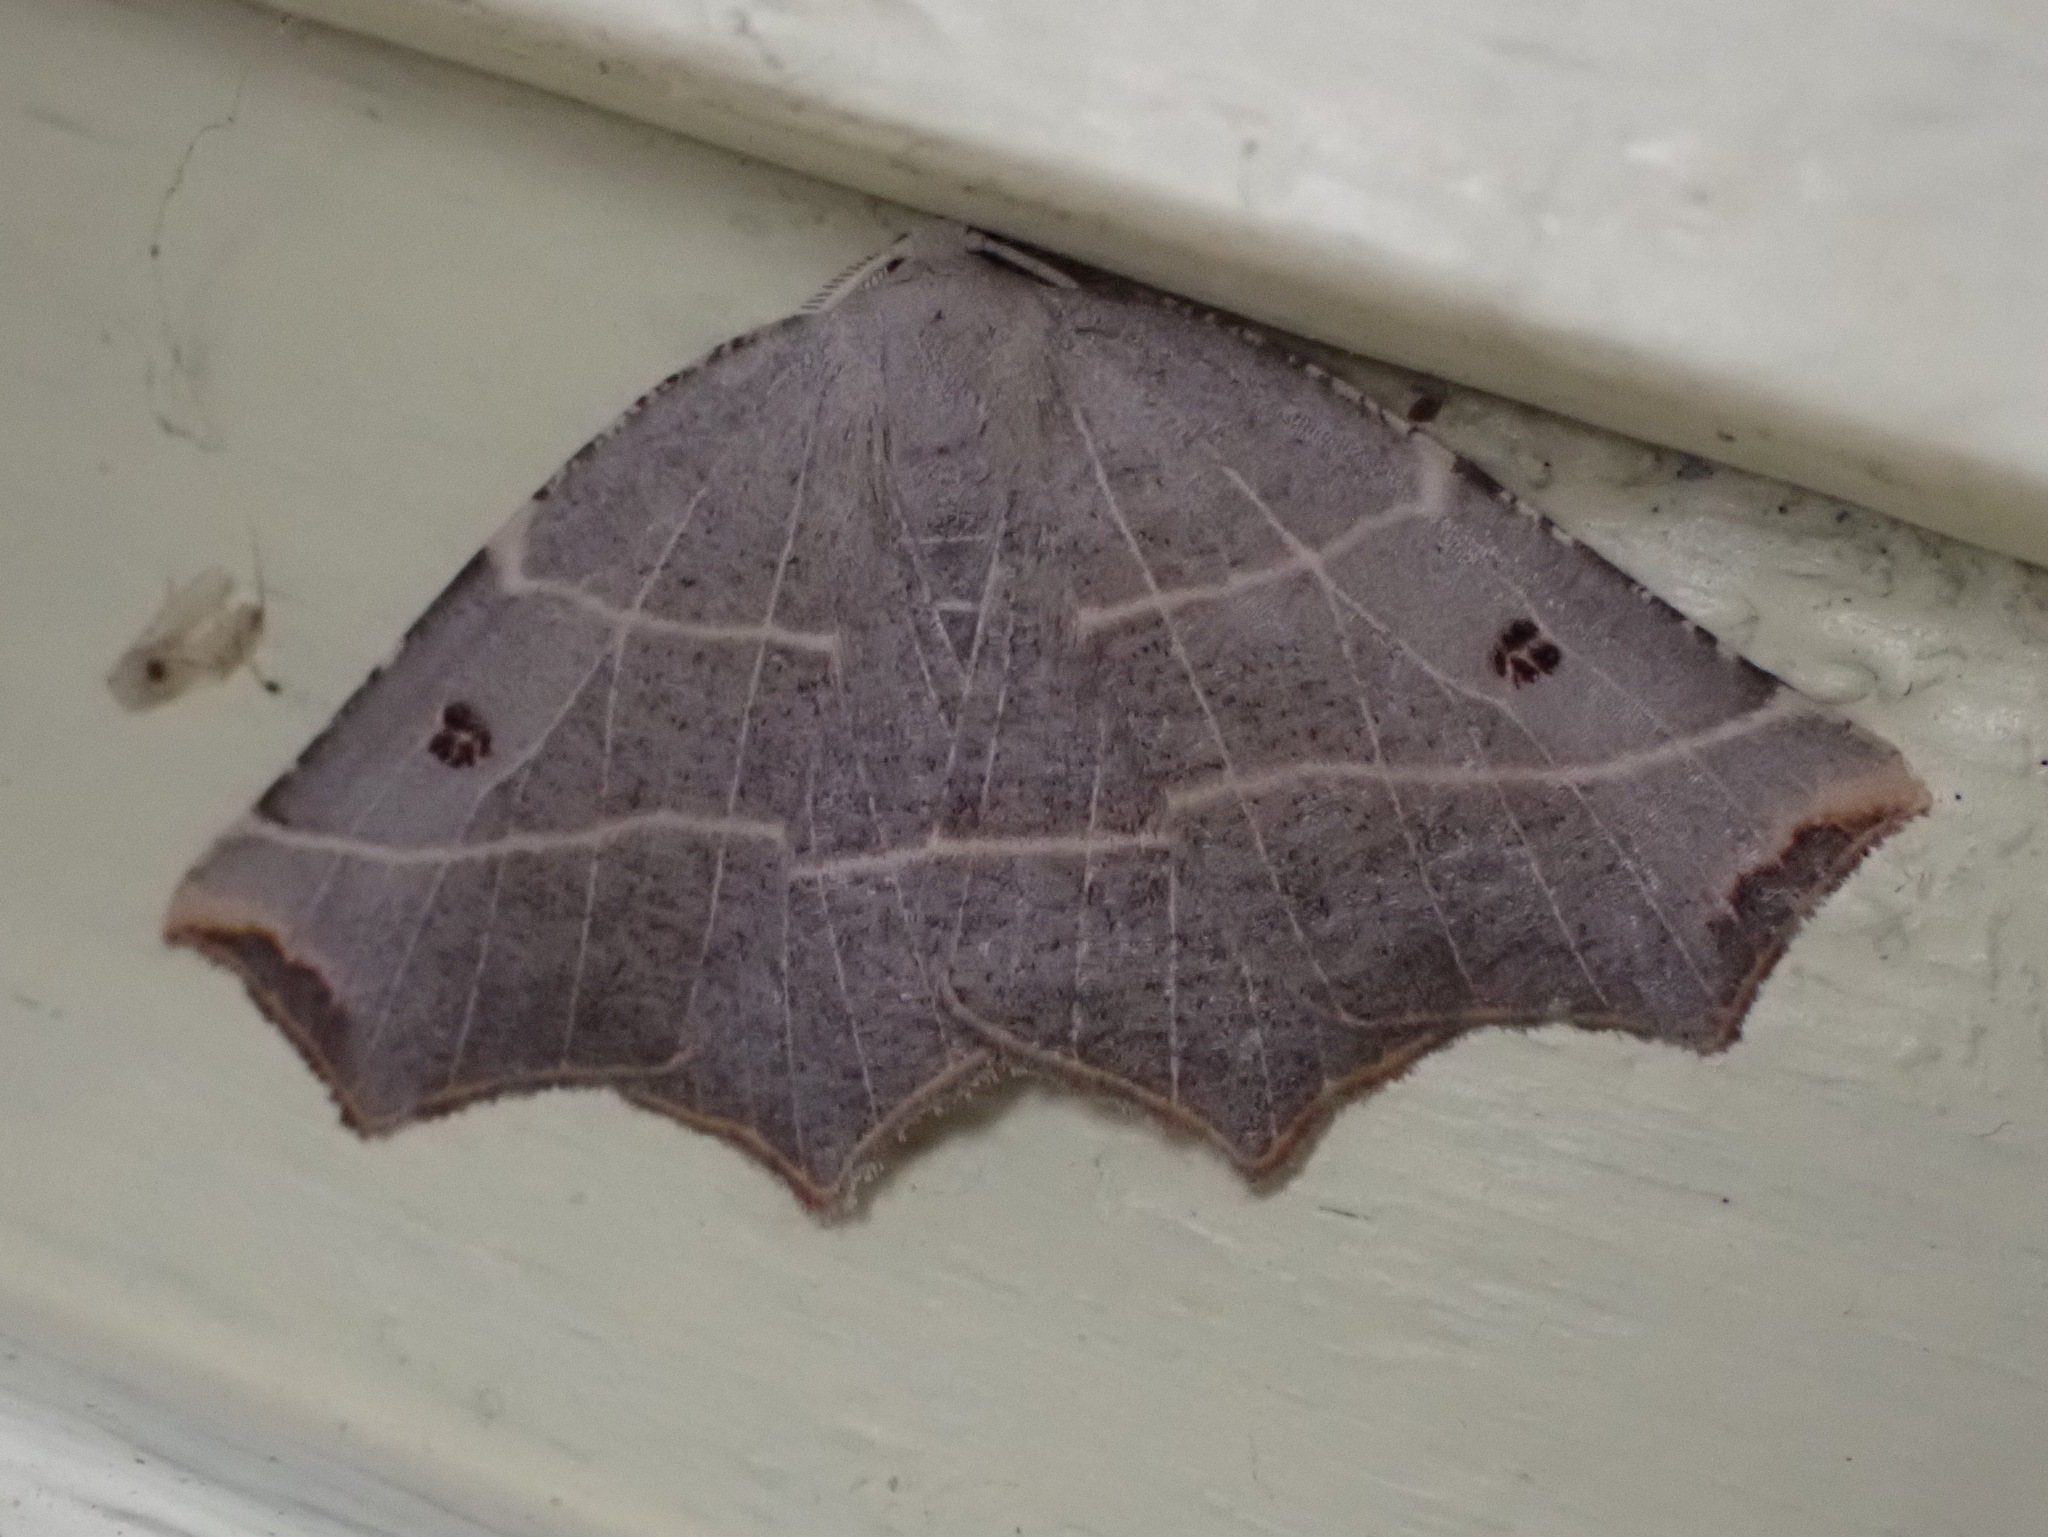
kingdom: Animalia
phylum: Arthropoda
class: Insecta
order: Lepidoptera
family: Geometridae
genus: Metanema
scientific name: Metanema inatomaria
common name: Pale metanema
